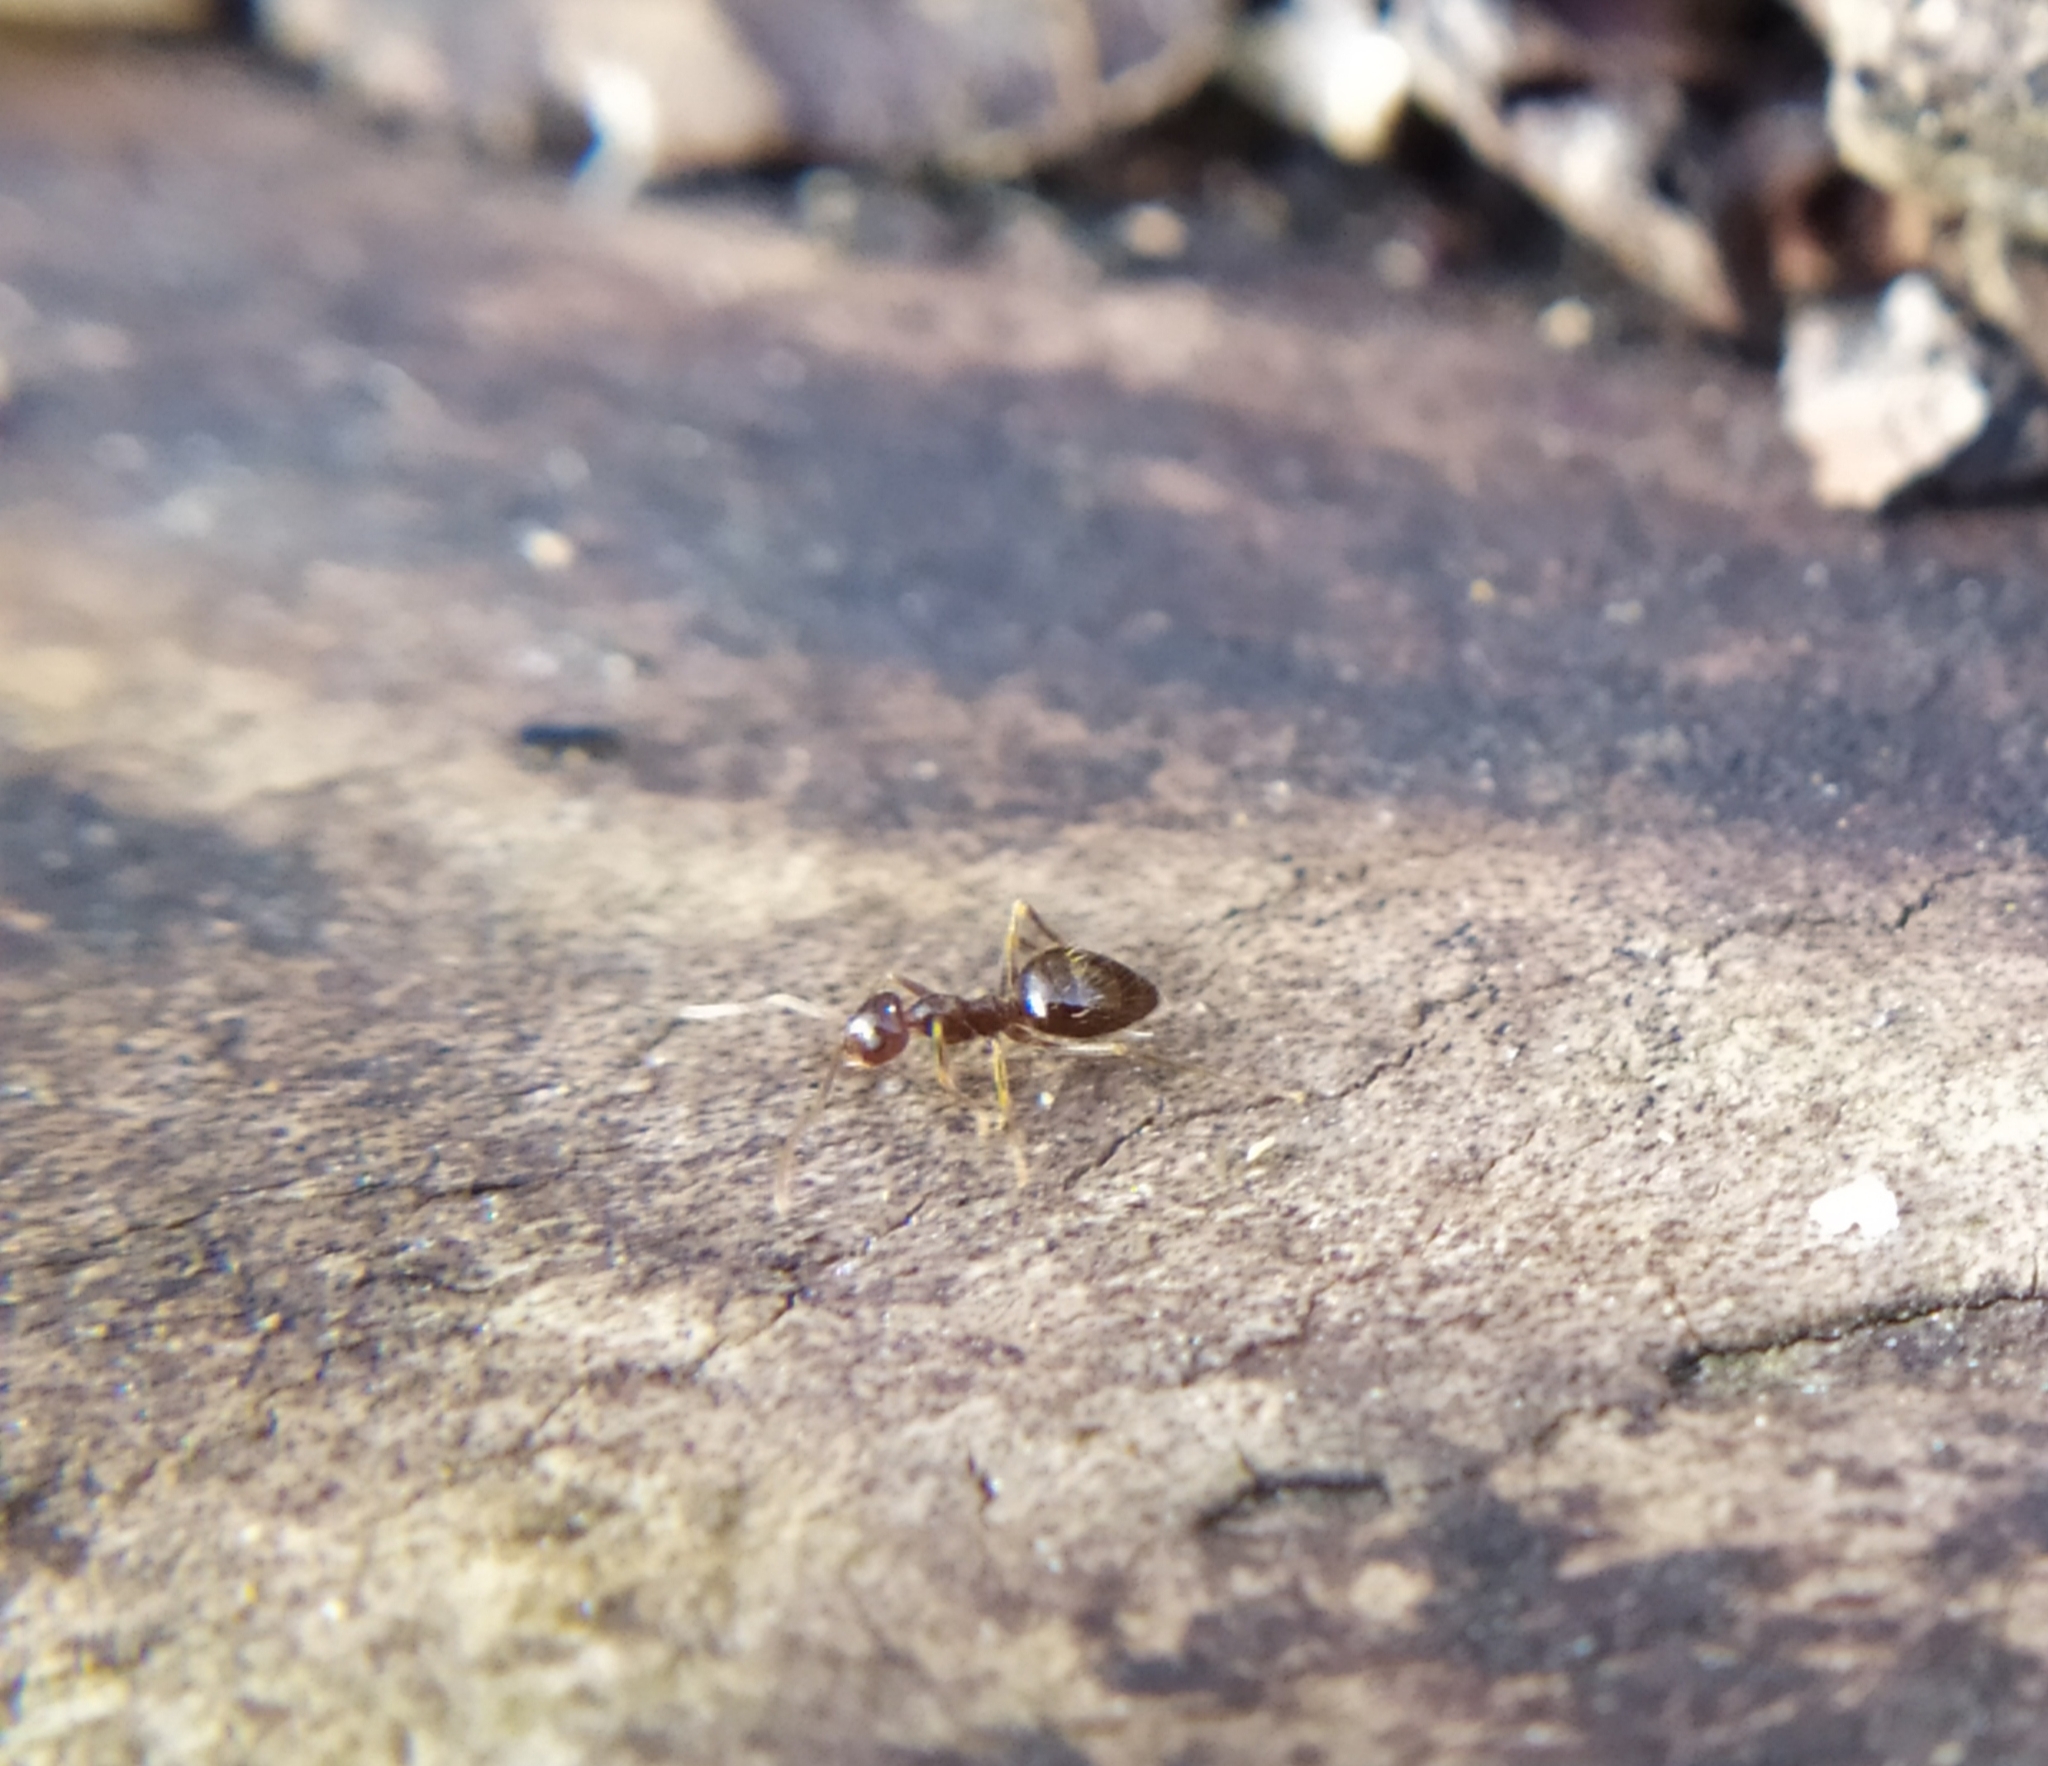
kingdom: Animalia
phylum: Arthropoda
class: Insecta
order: Hymenoptera
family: Formicidae
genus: Prenolepis
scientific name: Prenolepis nitens
